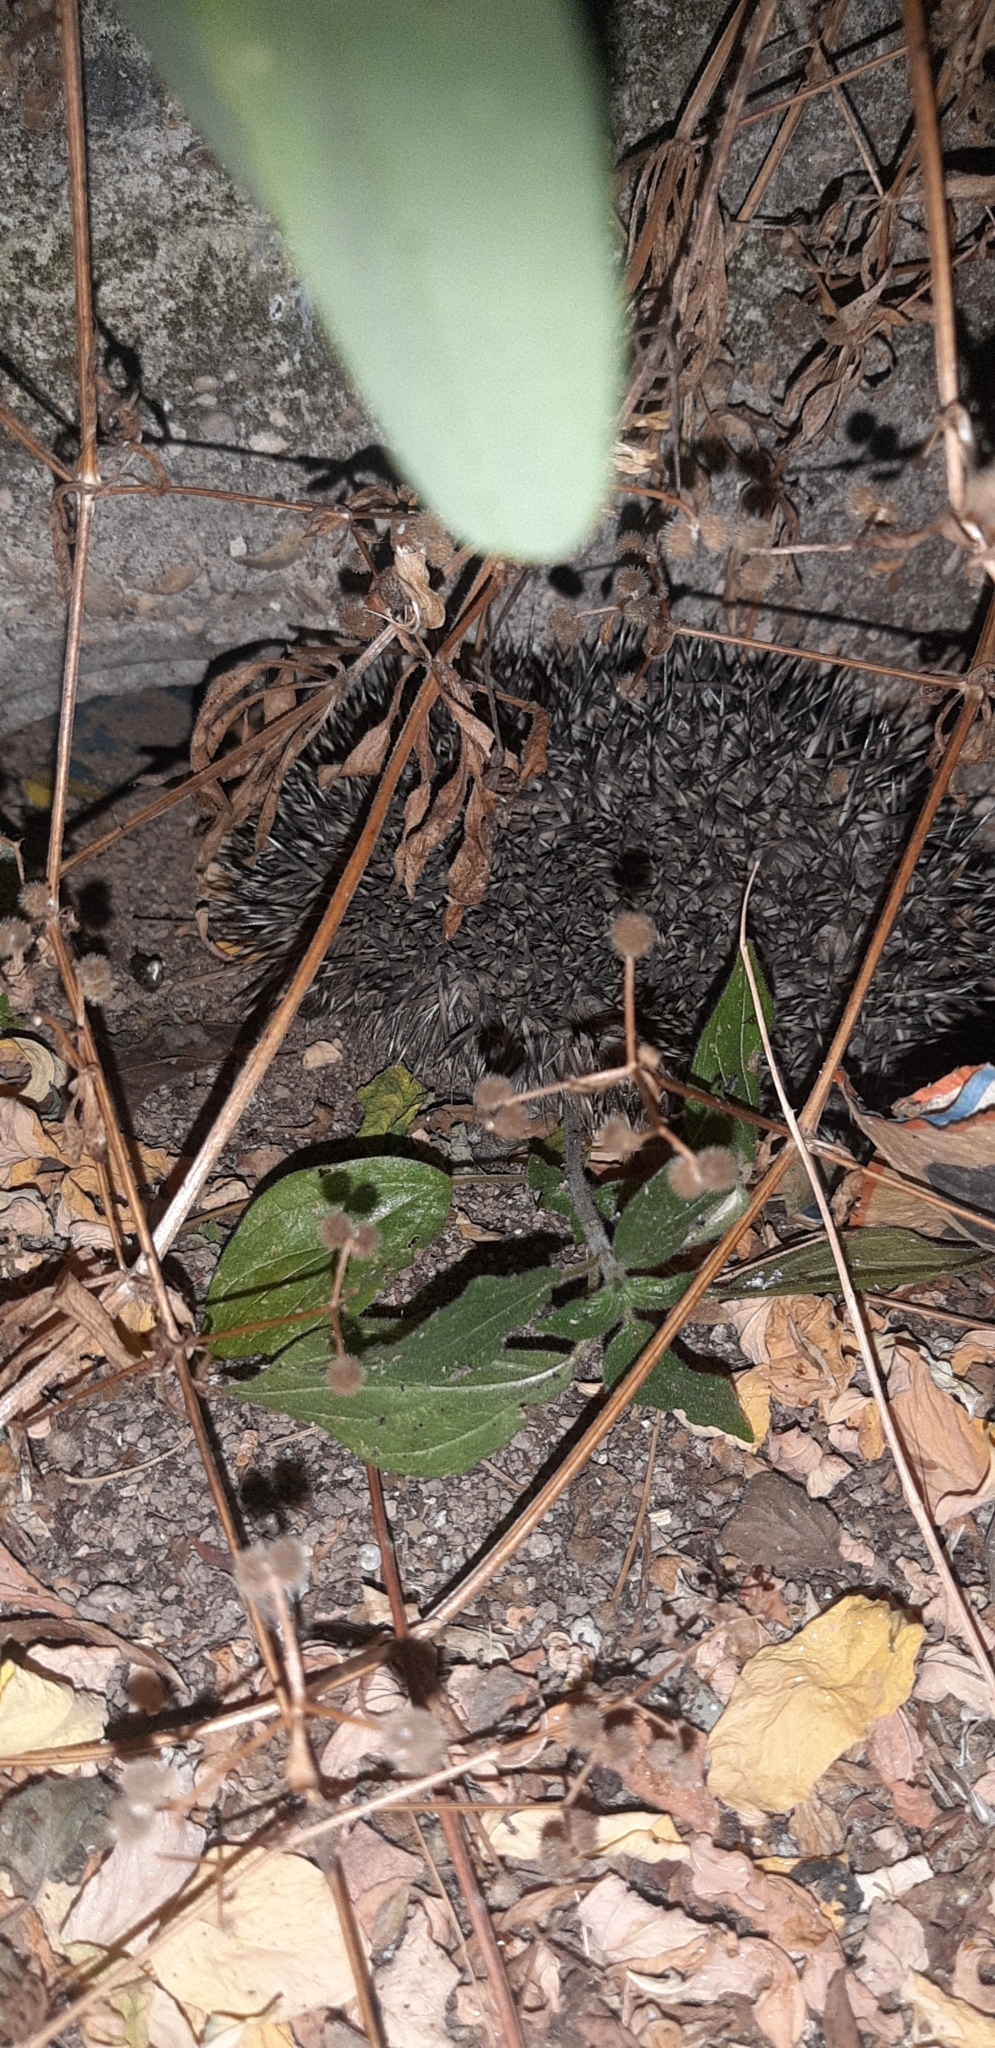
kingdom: Animalia
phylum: Chordata
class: Mammalia
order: Erinaceomorpha
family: Erinaceidae
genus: Erinaceus
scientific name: Erinaceus europaeus
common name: West european hedgehog
